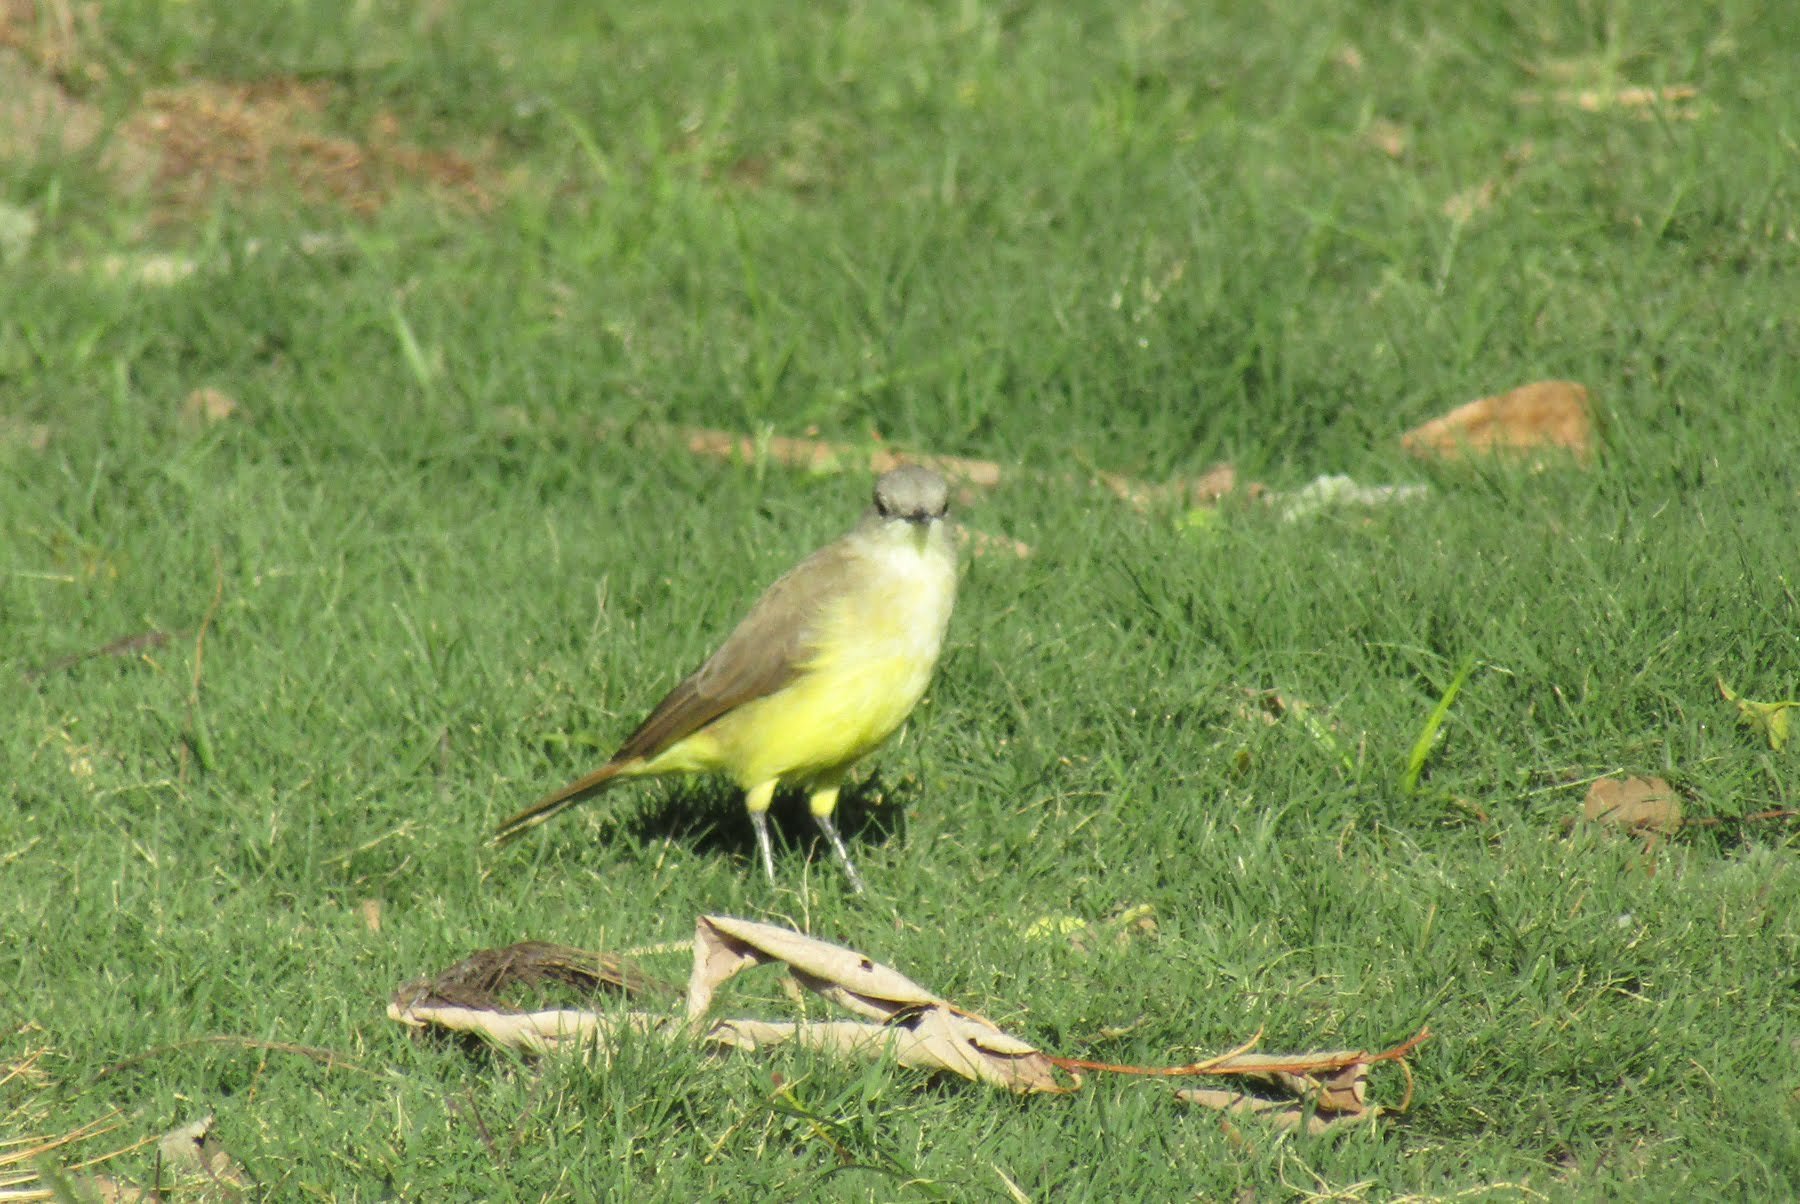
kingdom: Animalia
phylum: Chordata
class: Aves
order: Passeriformes
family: Tyrannidae
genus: Machetornis
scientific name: Machetornis rixosa
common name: Cattle tyrant
